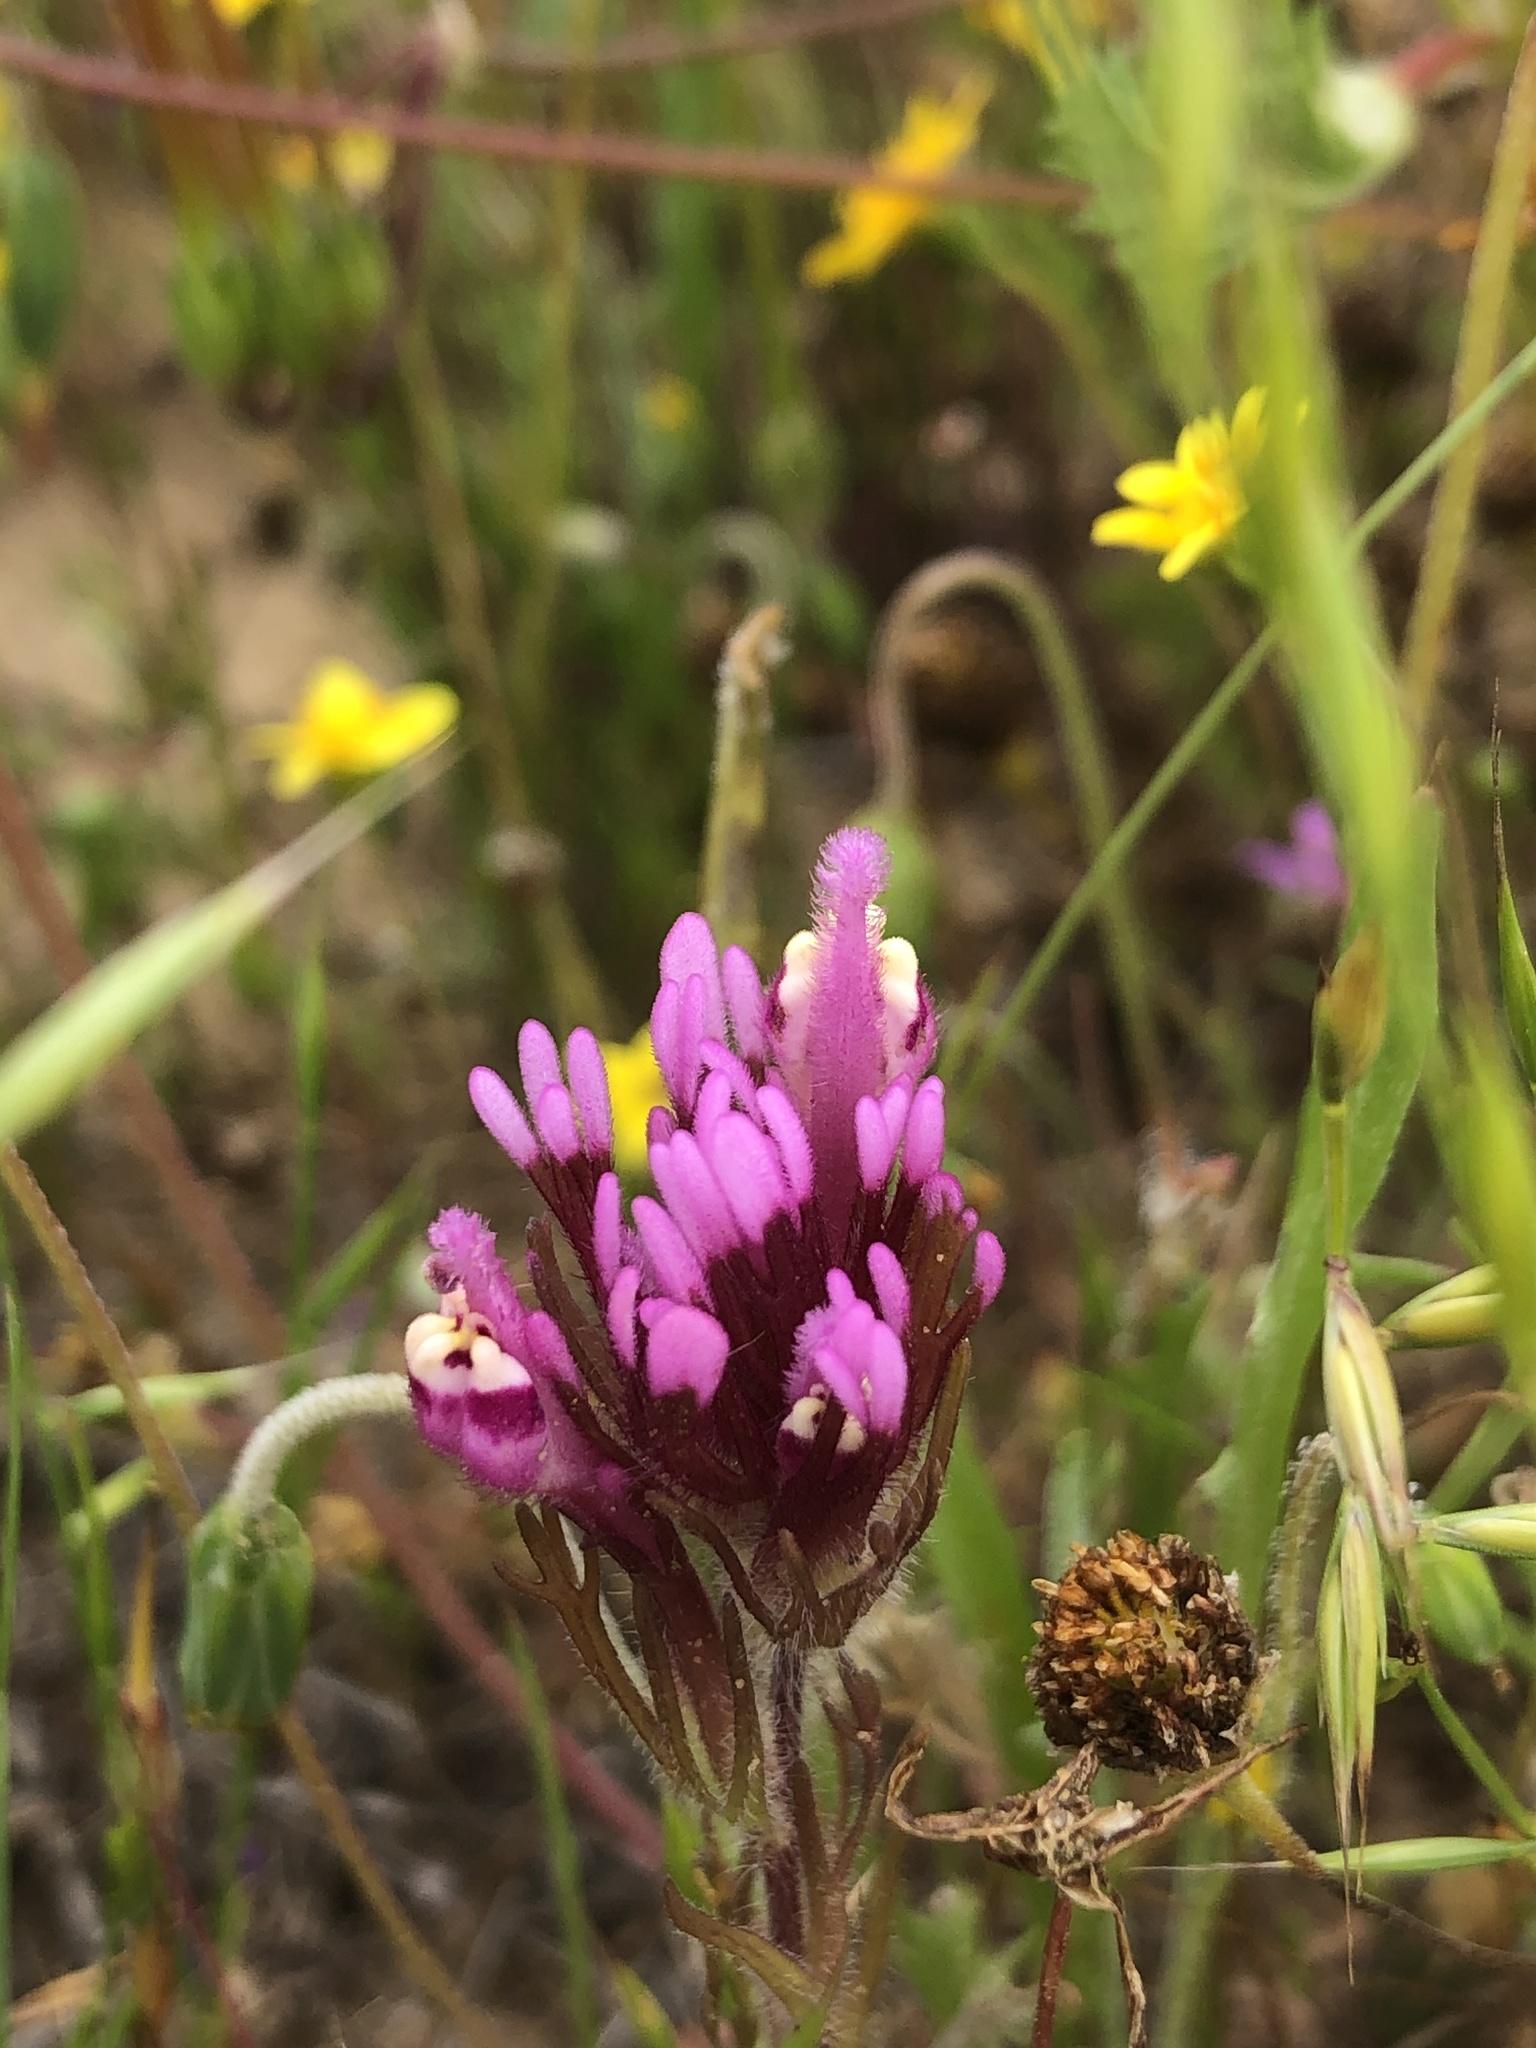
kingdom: Plantae
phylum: Tracheophyta
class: Magnoliopsida
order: Lamiales
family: Orobanchaceae
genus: Castilleja
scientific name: Castilleja exserta
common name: Purple owl-clover
